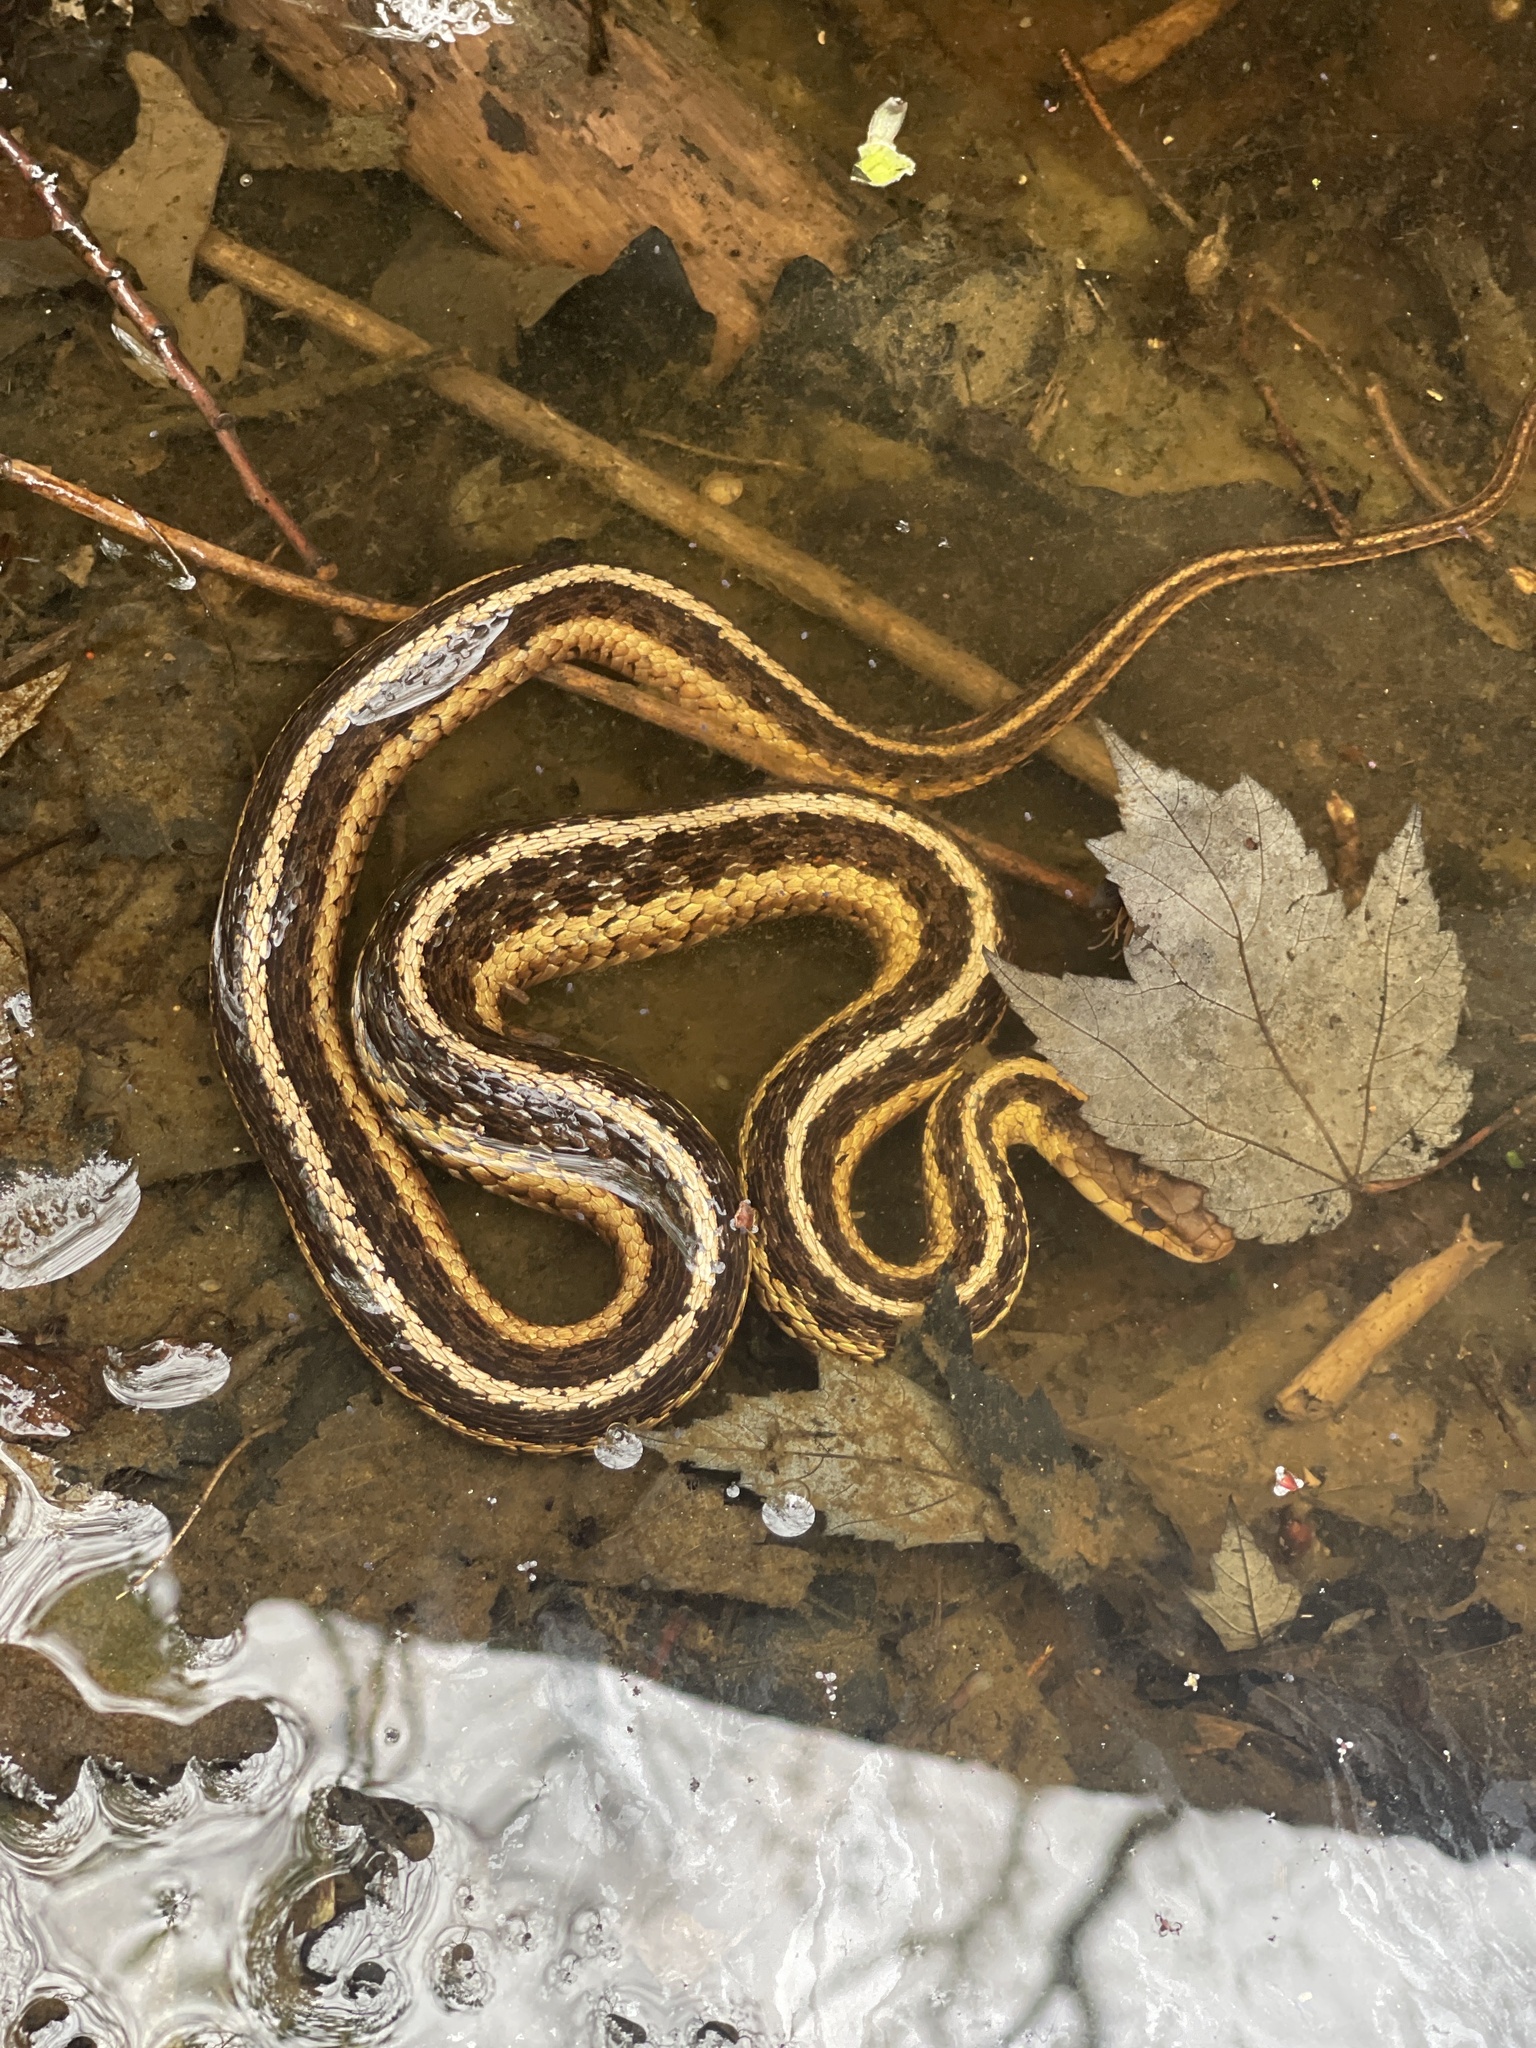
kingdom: Animalia
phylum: Chordata
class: Squamata
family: Colubridae
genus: Thamnophis
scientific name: Thamnophis sirtalis
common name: Common garter snake
